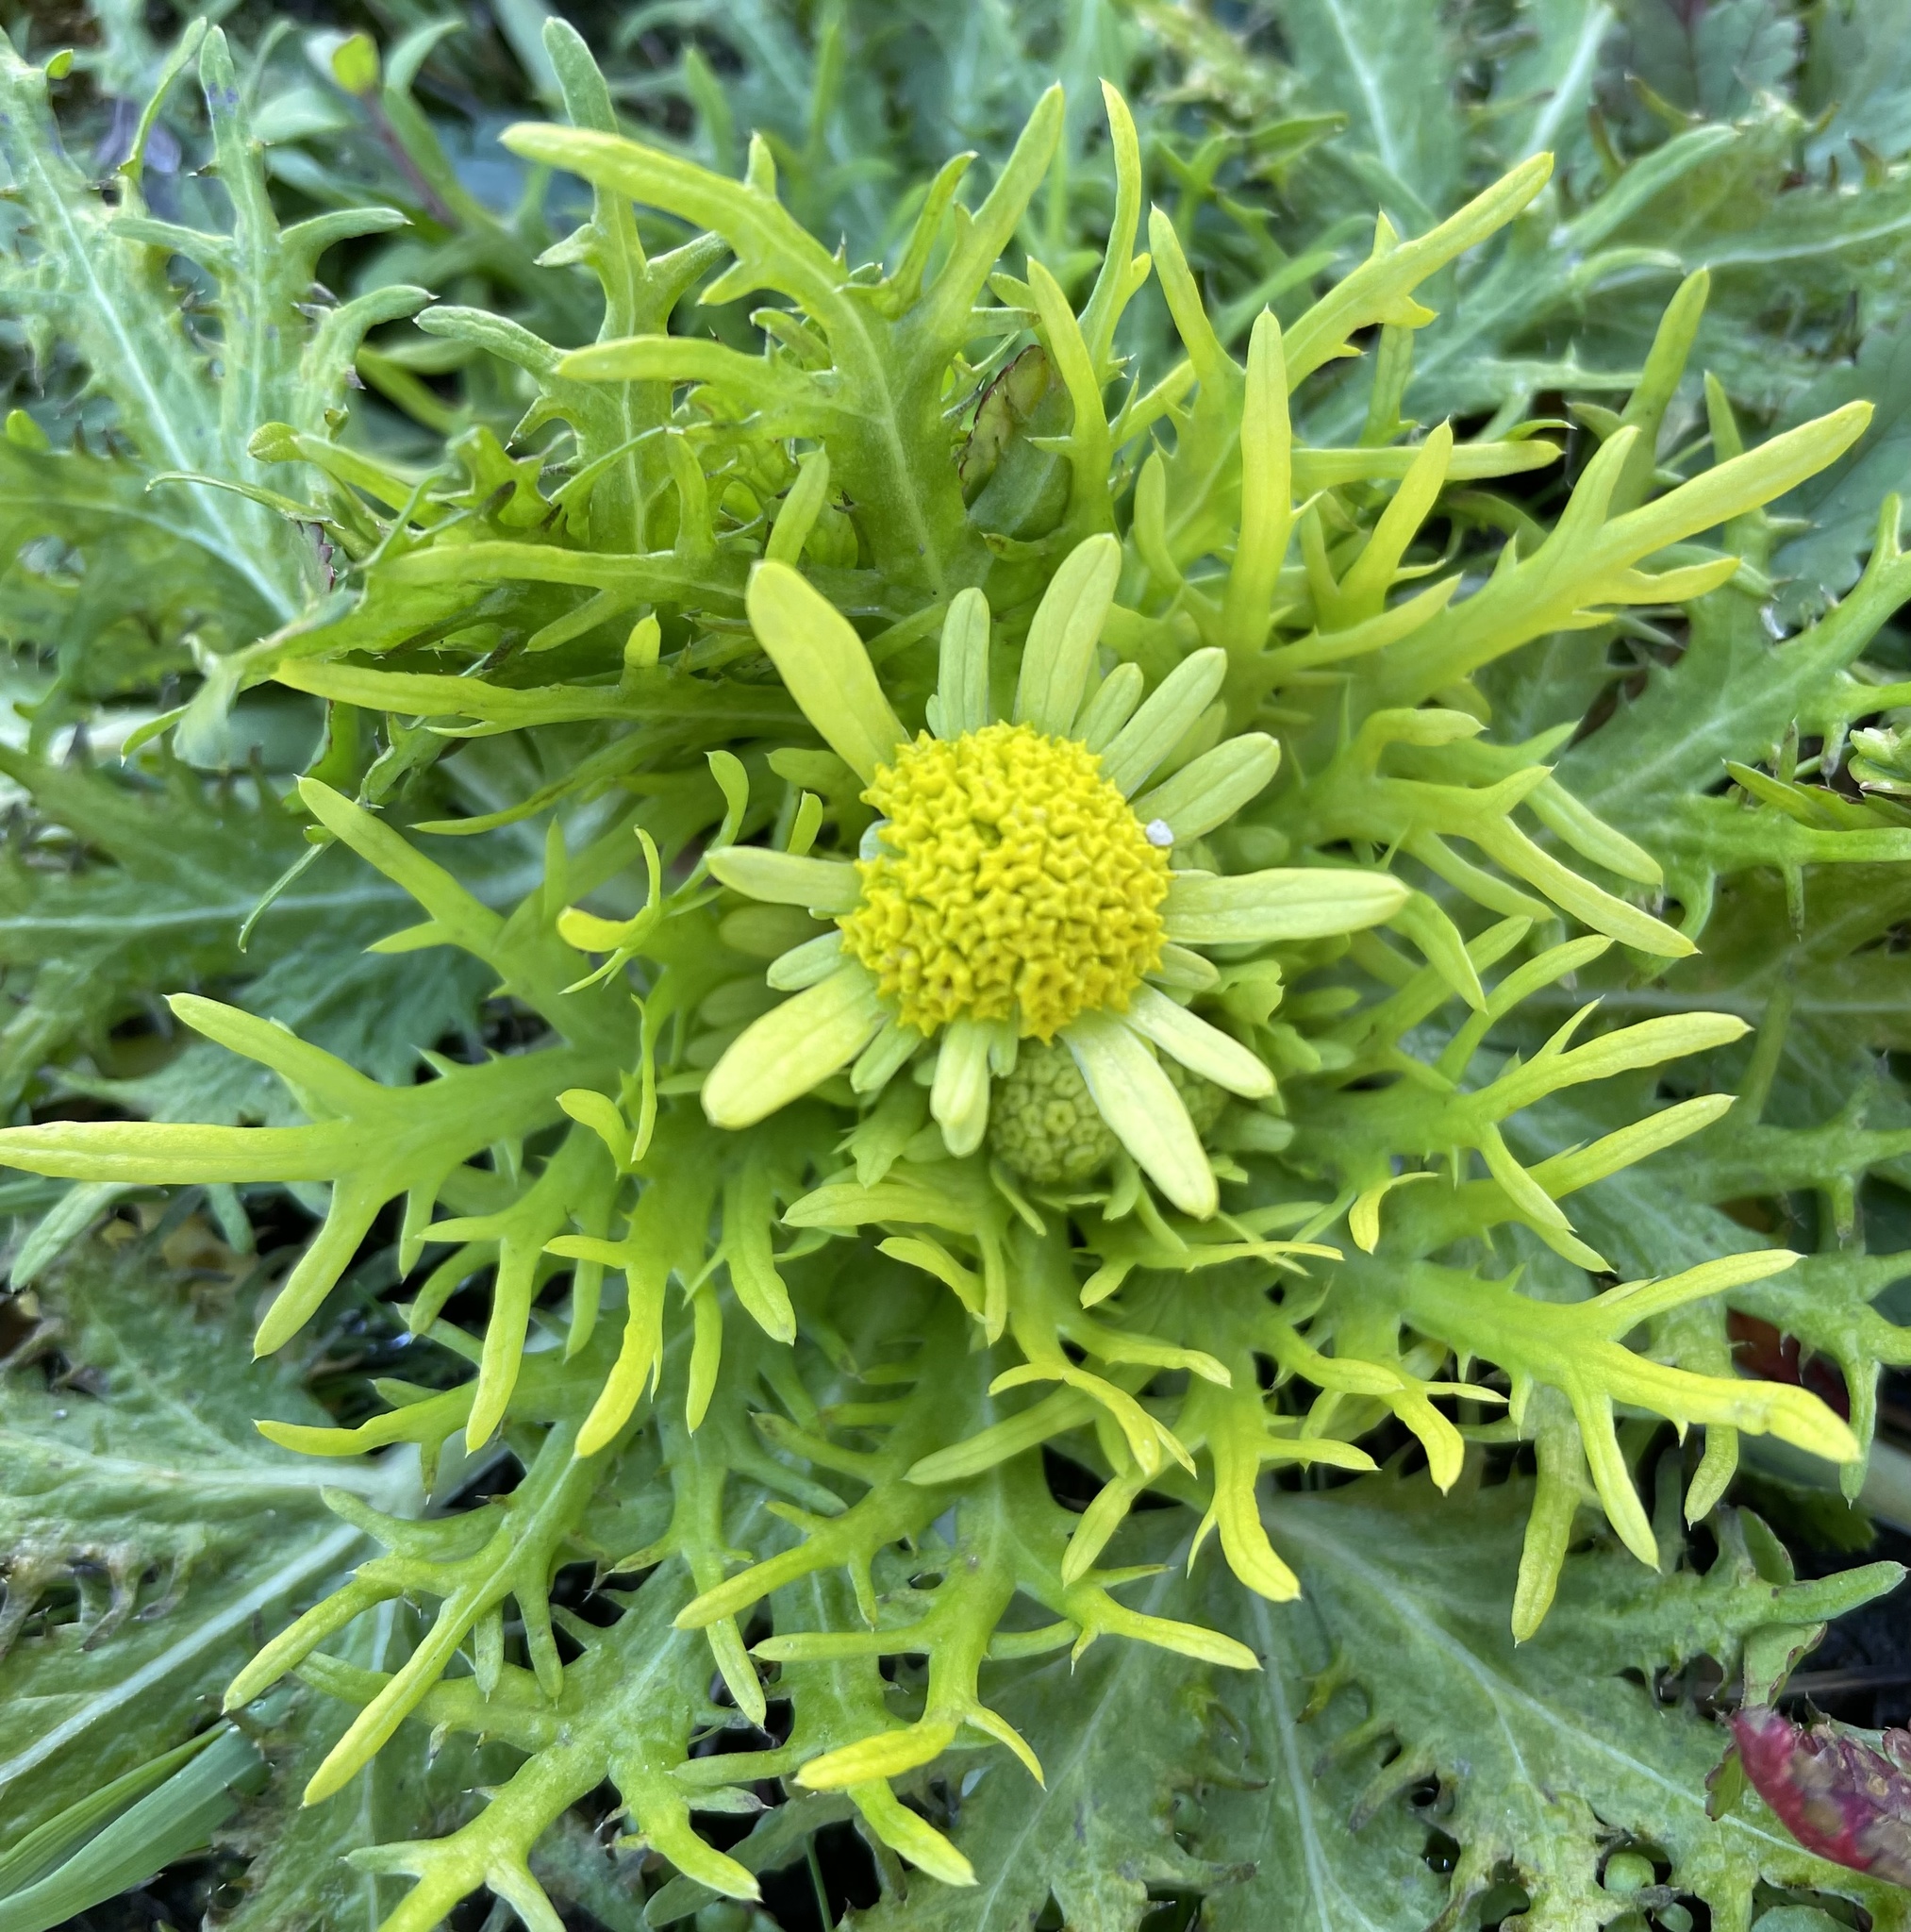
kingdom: Plantae
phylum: Tracheophyta
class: Magnoliopsida
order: Apiales
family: Apiaceae
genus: Sanicula
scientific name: Sanicula arctopoides
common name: Footsteps-of-spring
